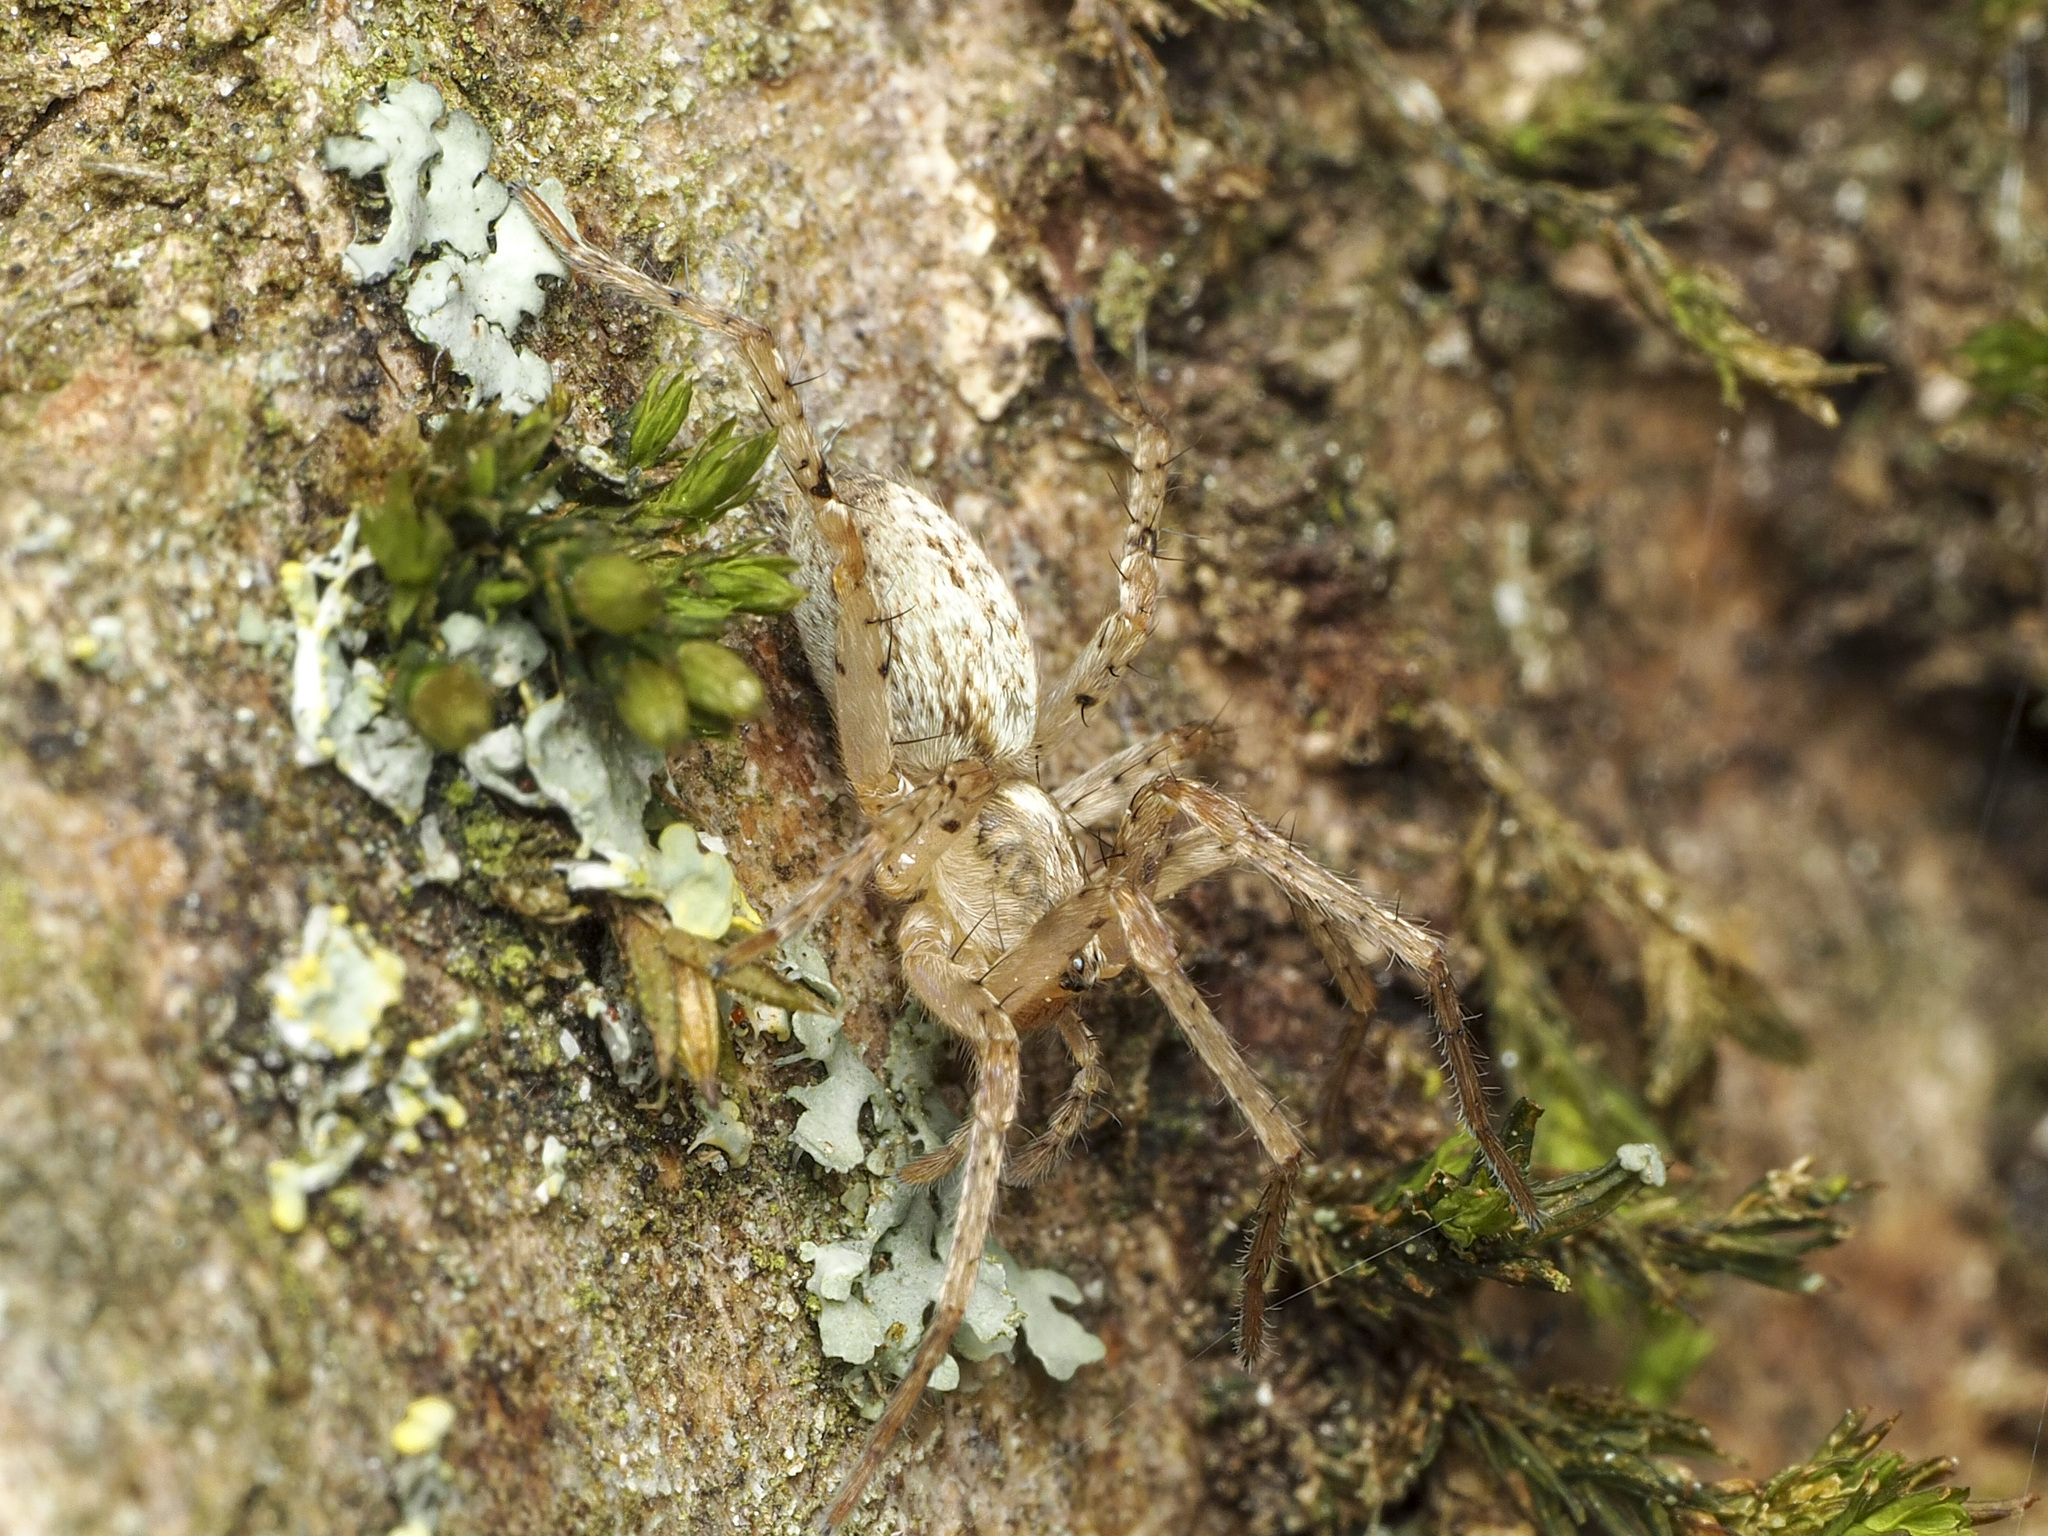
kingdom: Animalia
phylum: Arthropoda
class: Arachnida
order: Araneae
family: Anyphaenidae
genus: Anyphaena
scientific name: Anyphaena accentuata
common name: Buzzing spider
